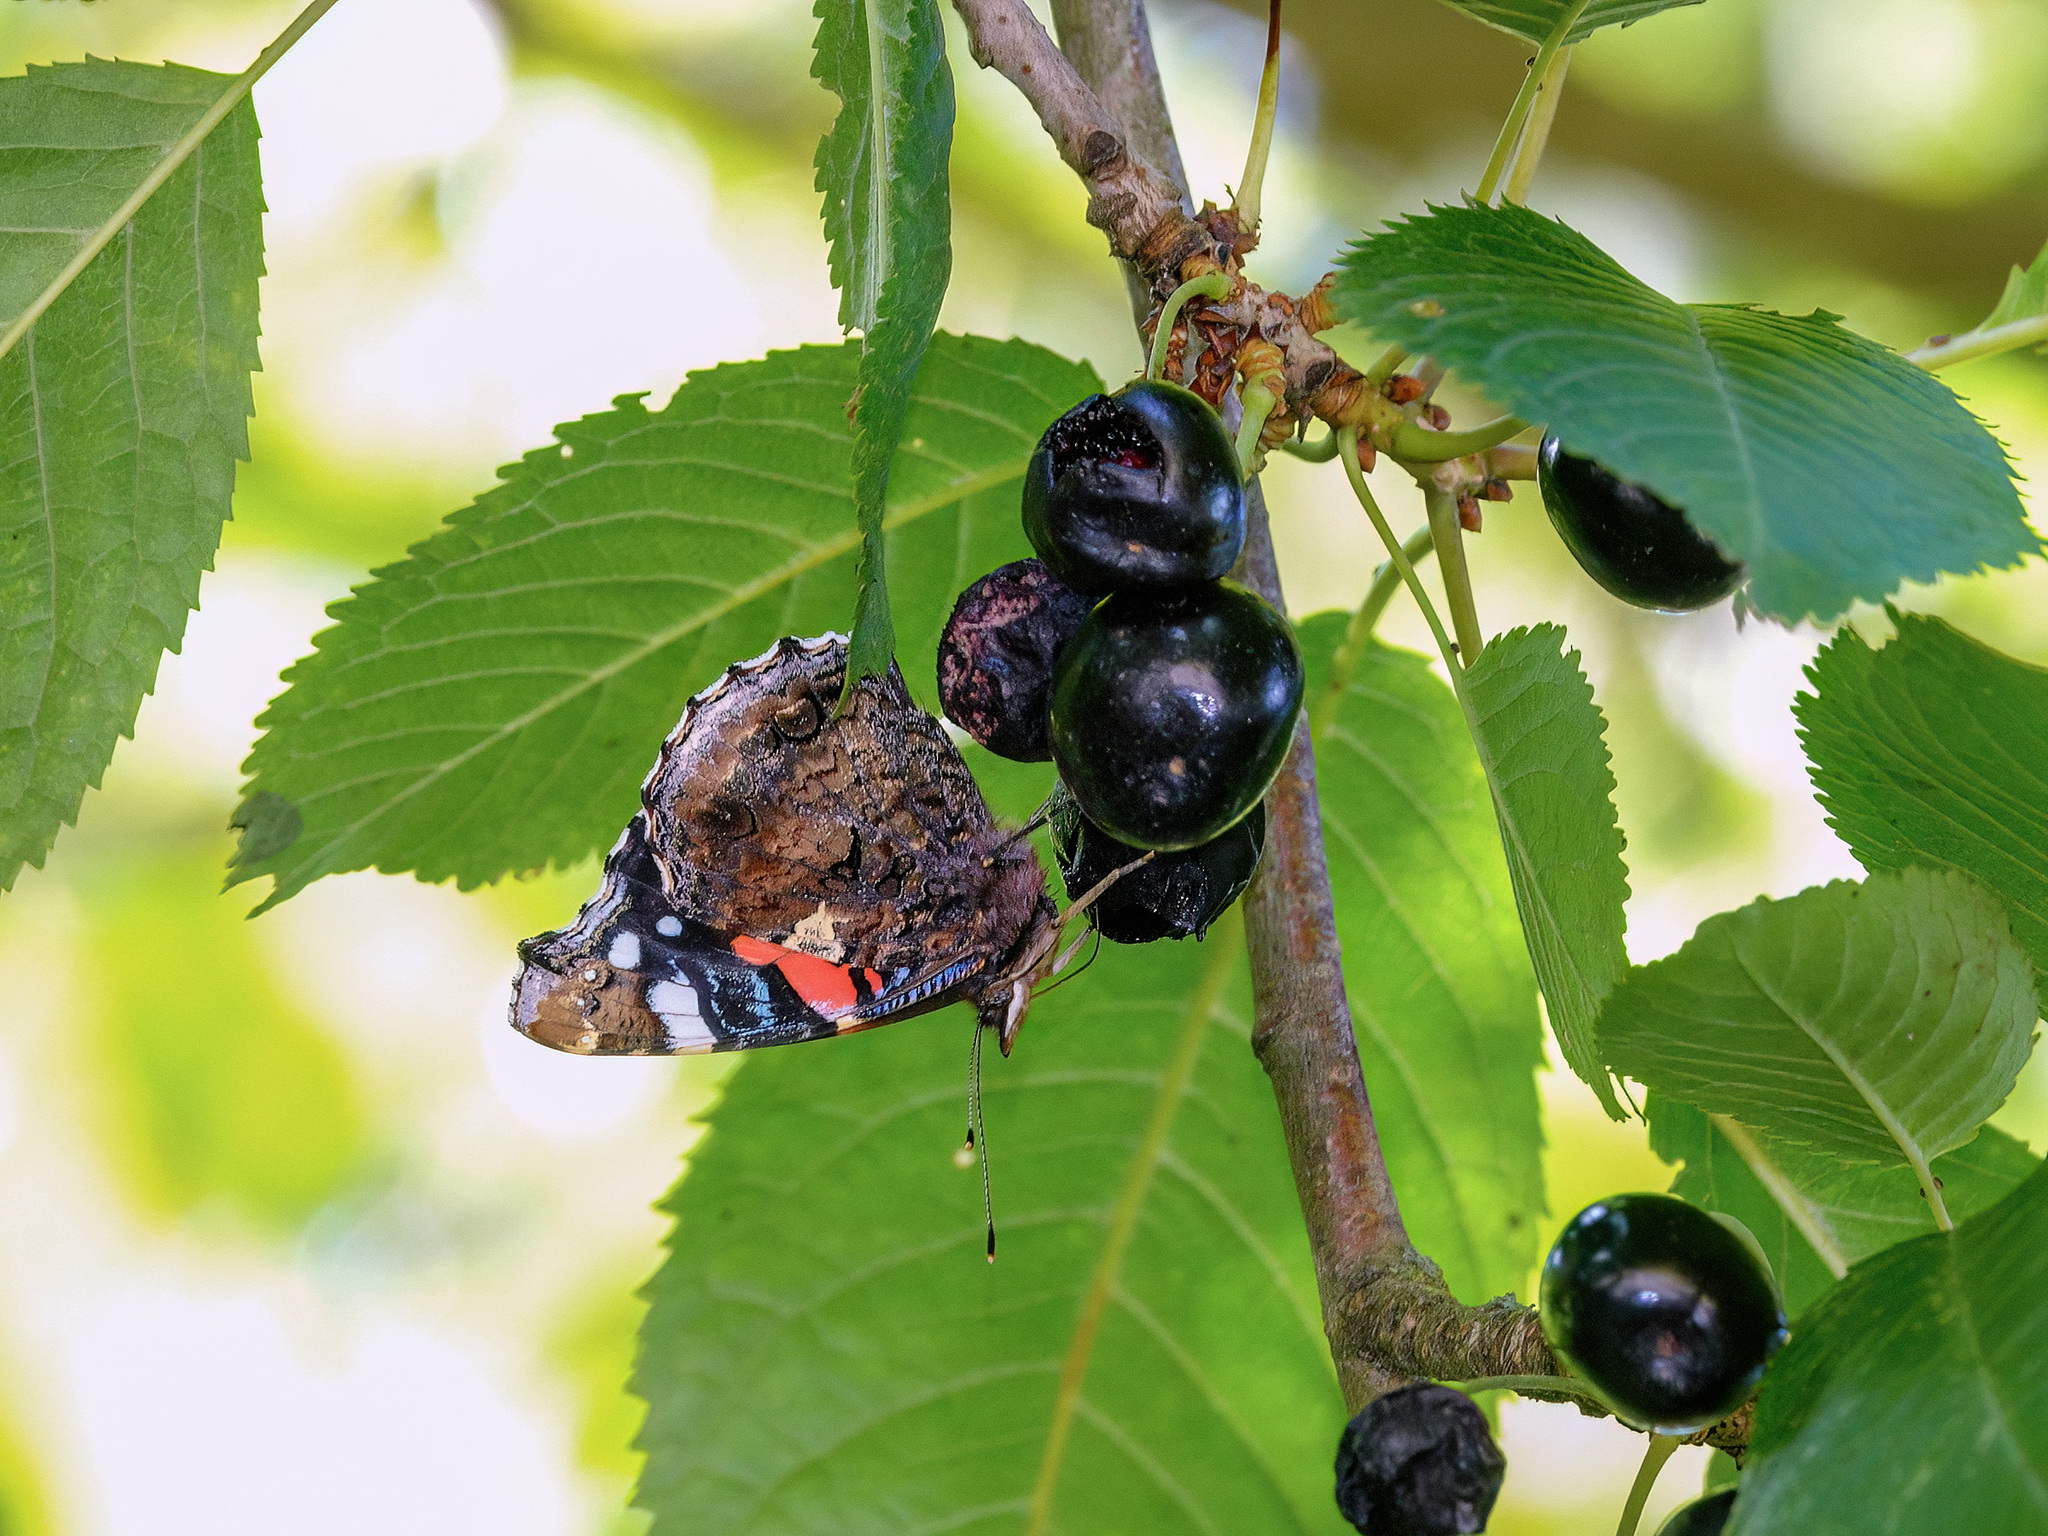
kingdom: Animalia
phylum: Arthropoda
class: Insecta
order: Lepidoptera
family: Nymphalidae
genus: Vanessa
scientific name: Vanessa atalanta
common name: Red admiral
